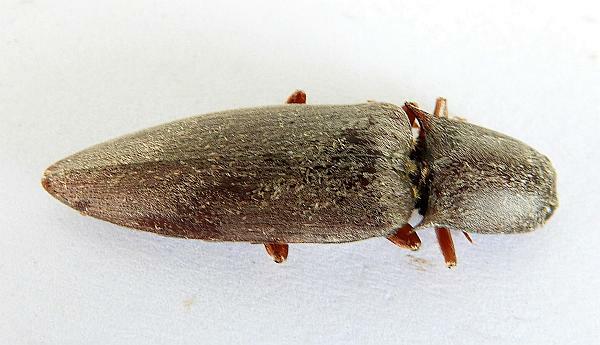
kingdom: Animalia
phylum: Arthropoda
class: Insecta
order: Coleoptera
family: Elateridae
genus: Lanelater
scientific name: Lanelater sallei
